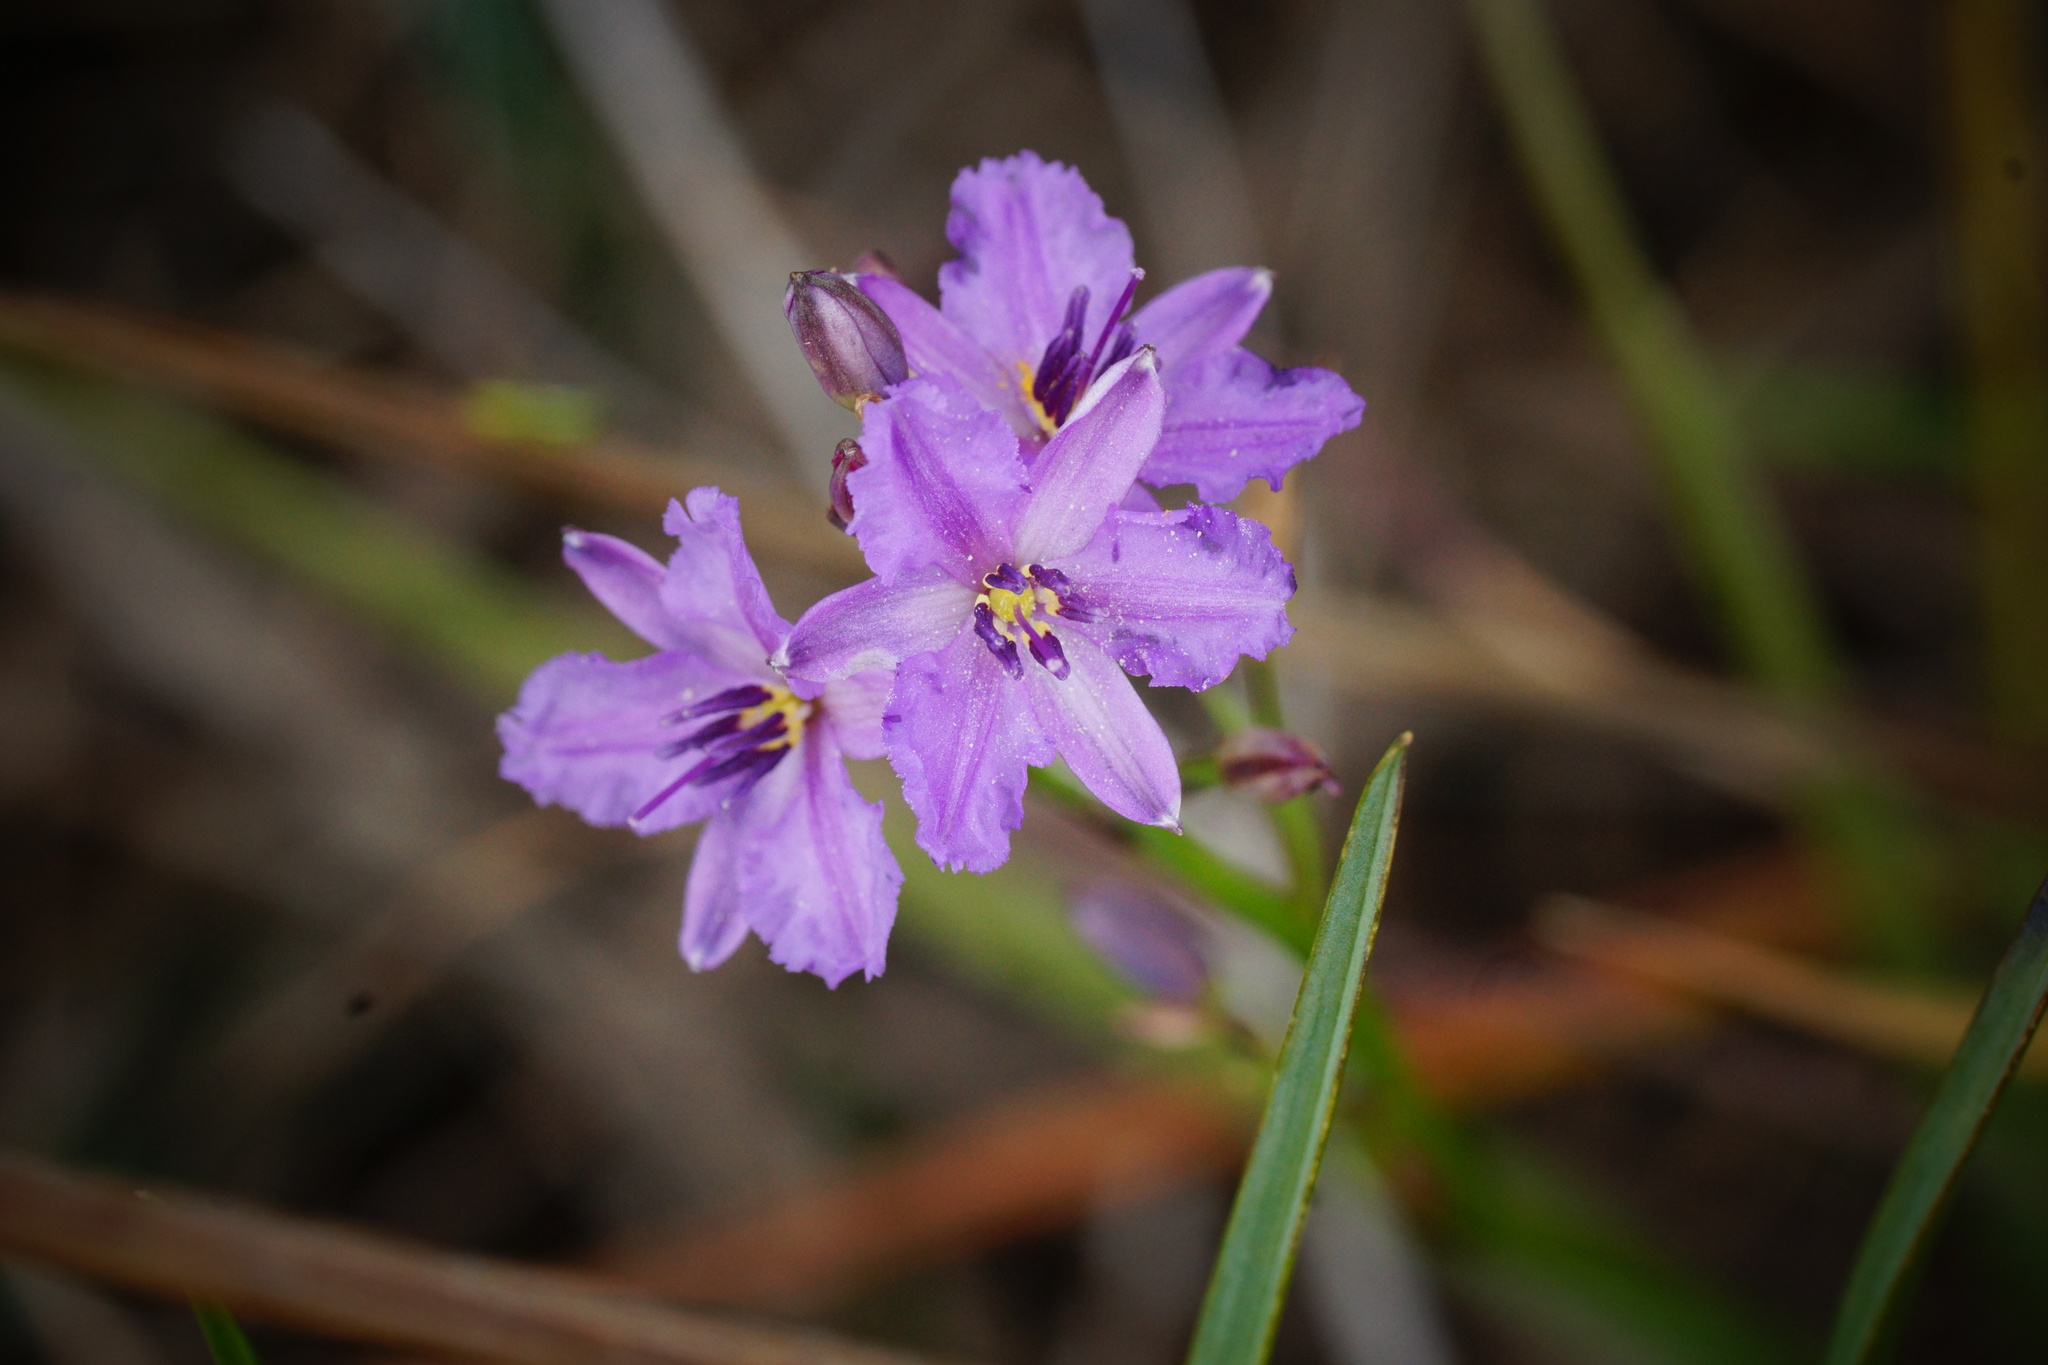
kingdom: Plantae
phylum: Tracheophyta
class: Liliopsida
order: Asparagales
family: Asparagaceae
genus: Arthropodium
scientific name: Arthropodium strictum
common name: Chocolate-lily
